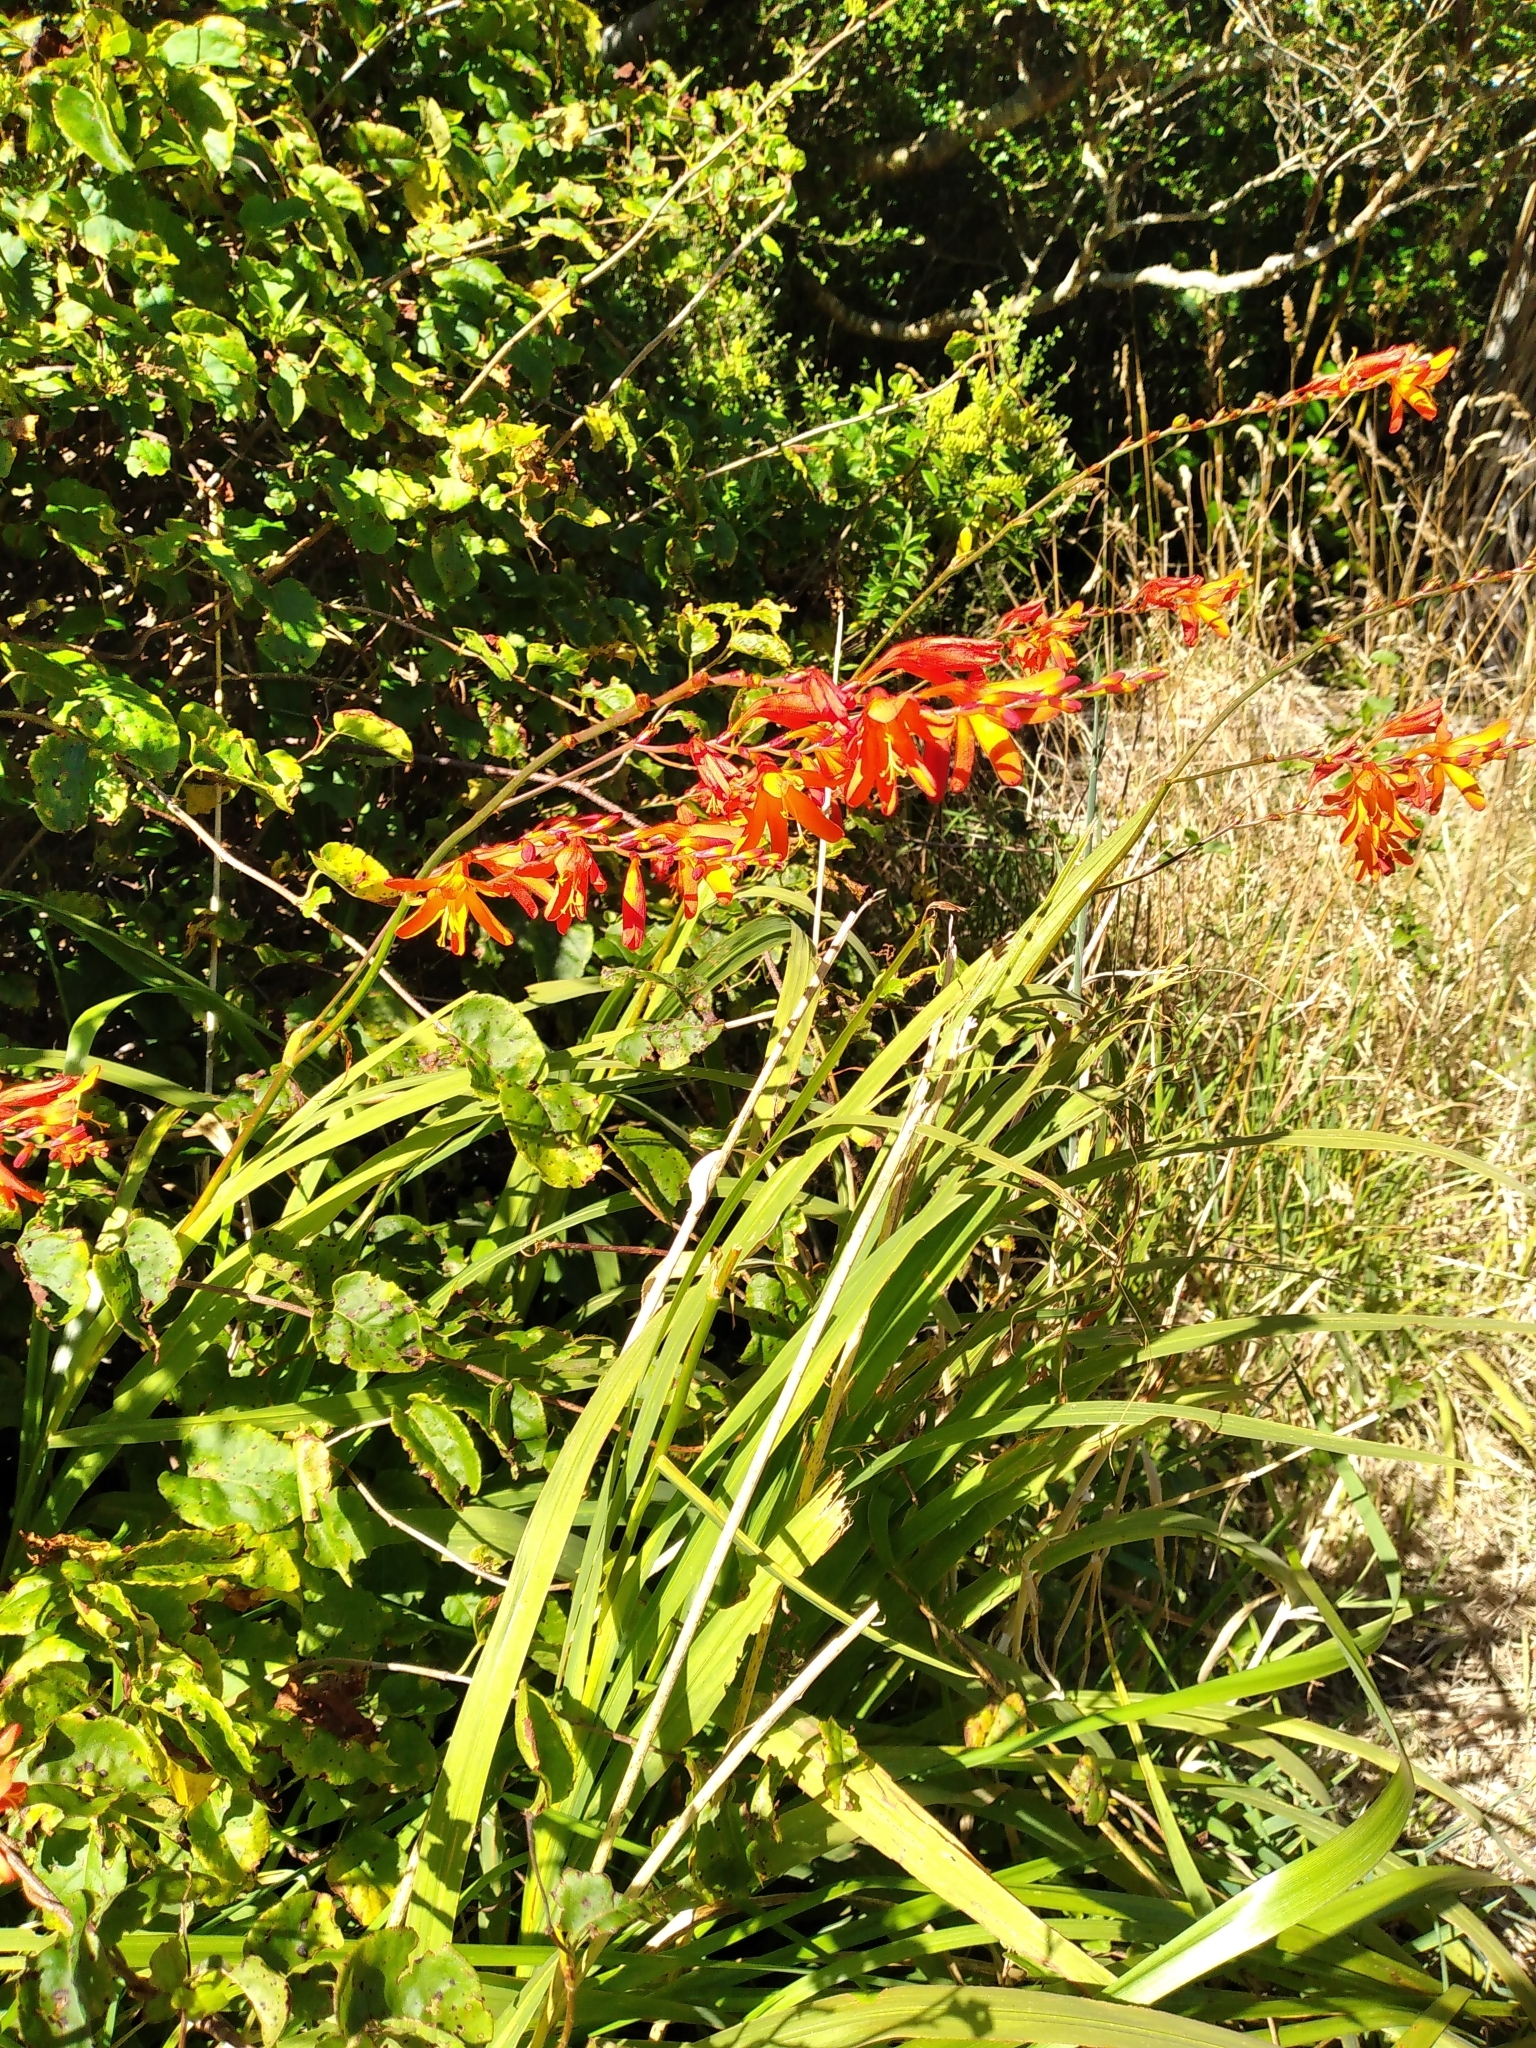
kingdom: Plantae
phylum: Tracheophyta
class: Liliopsida
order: Asparagales
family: Iridaceae
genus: Crocosmia
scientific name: Crocosmia crocosmiiflora
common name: Montbretia
